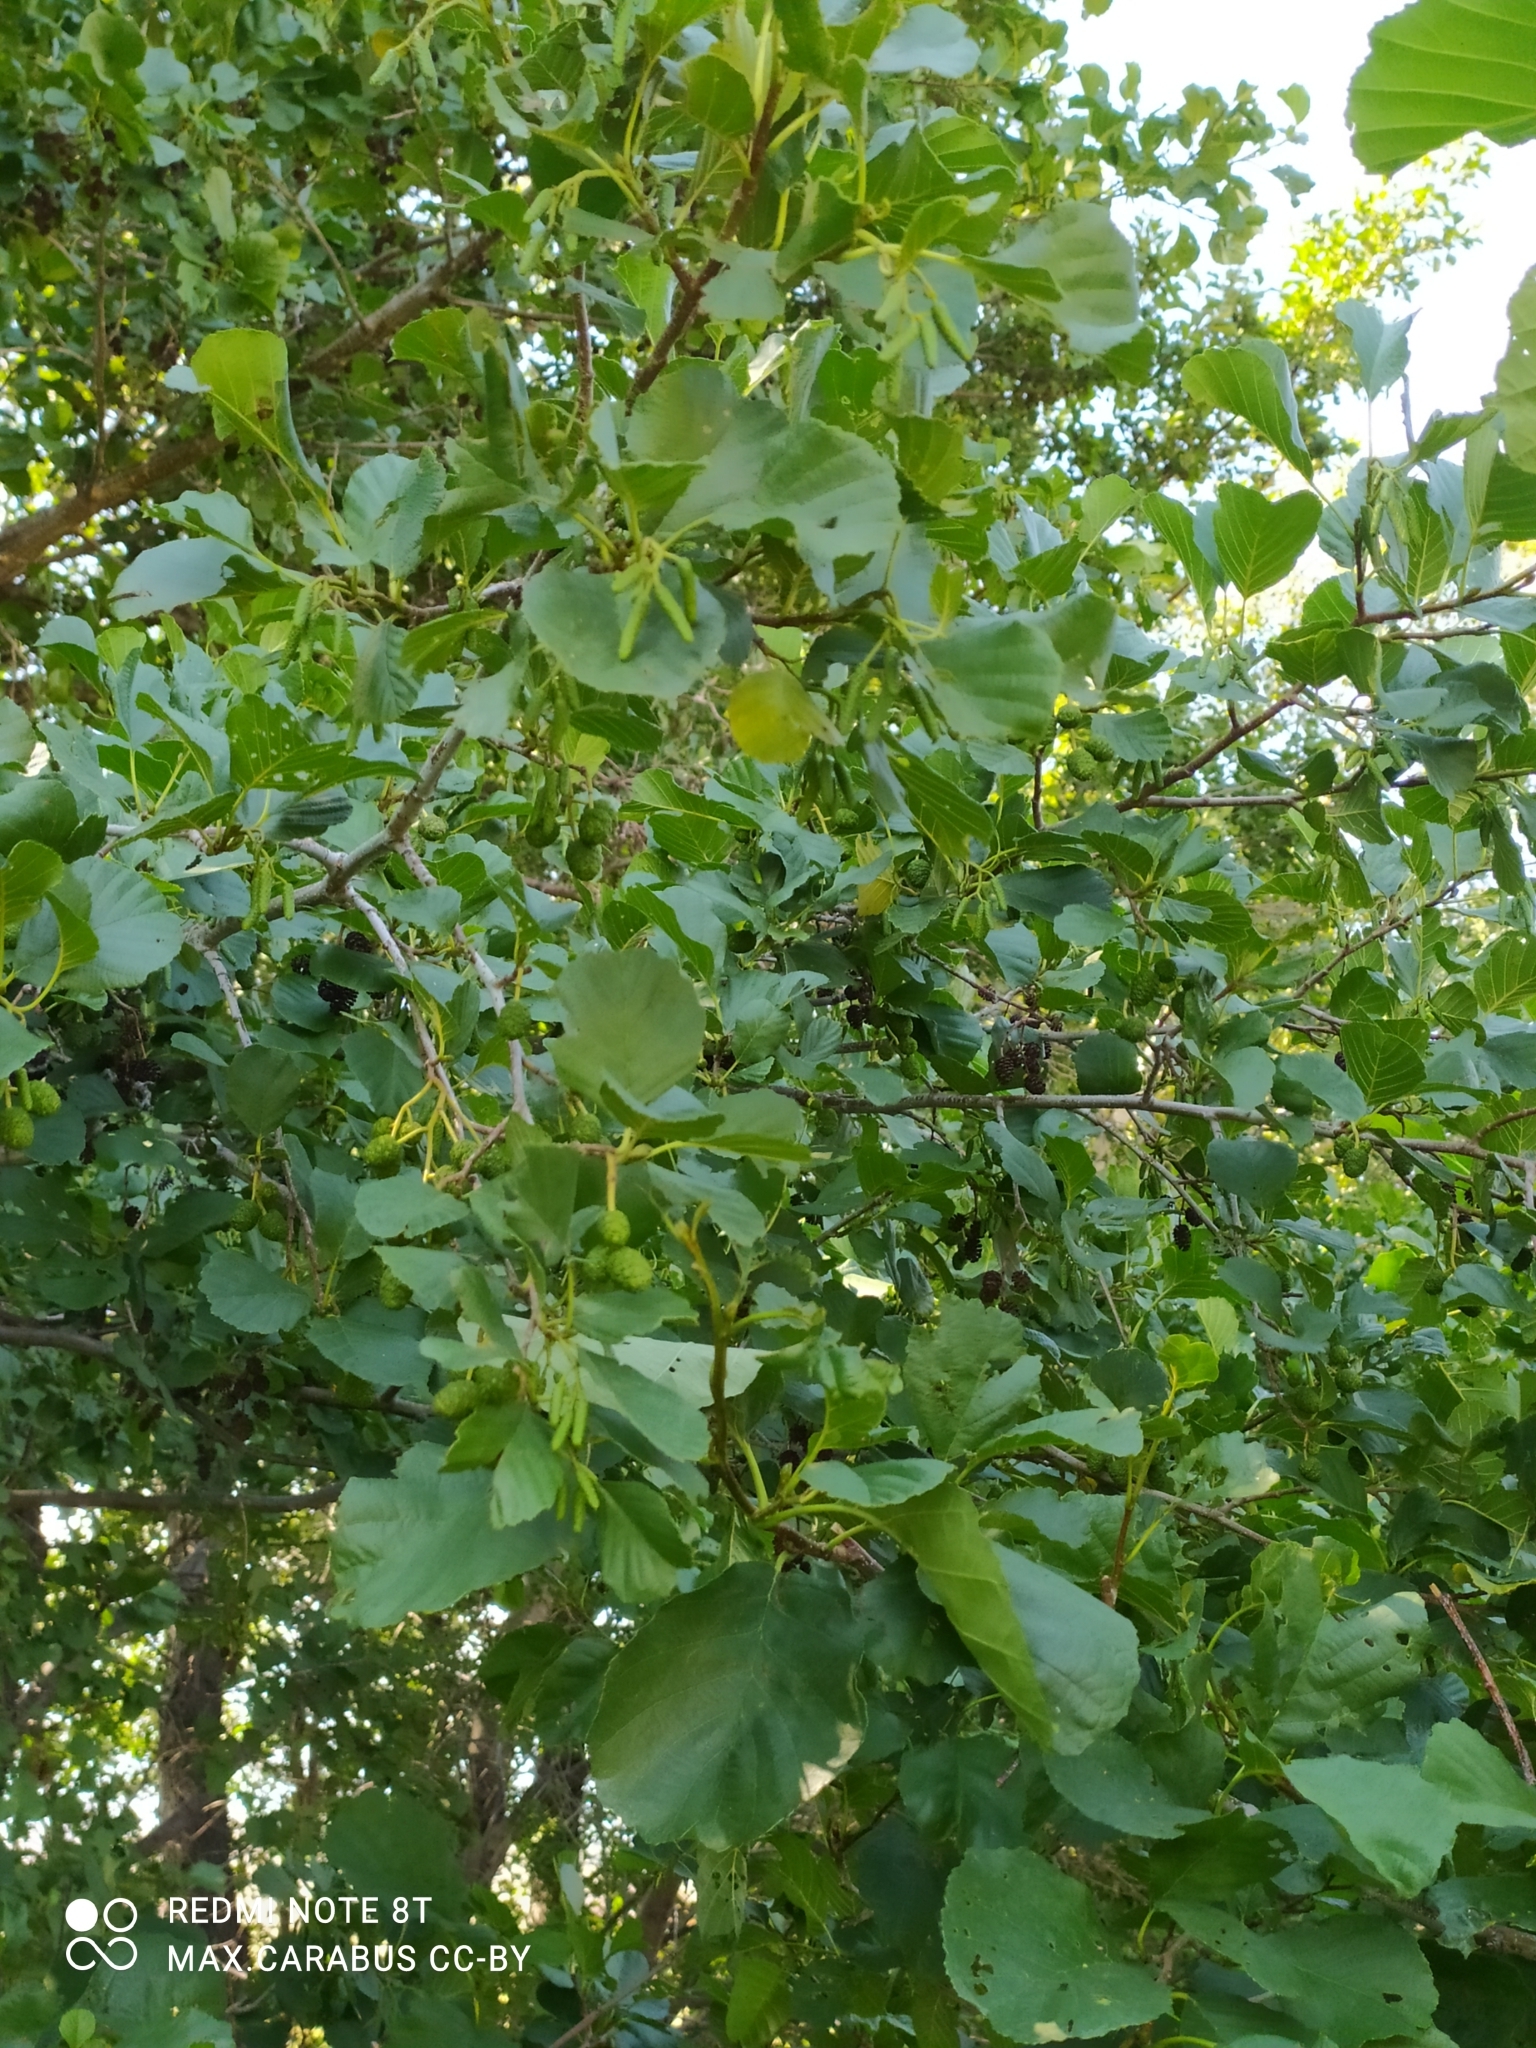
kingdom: Plantae
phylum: Tracheophyta
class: Magnoliopsida
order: Fagales
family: Betulaceae
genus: Alnus
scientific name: Alnus glutinosa
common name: Black alder
